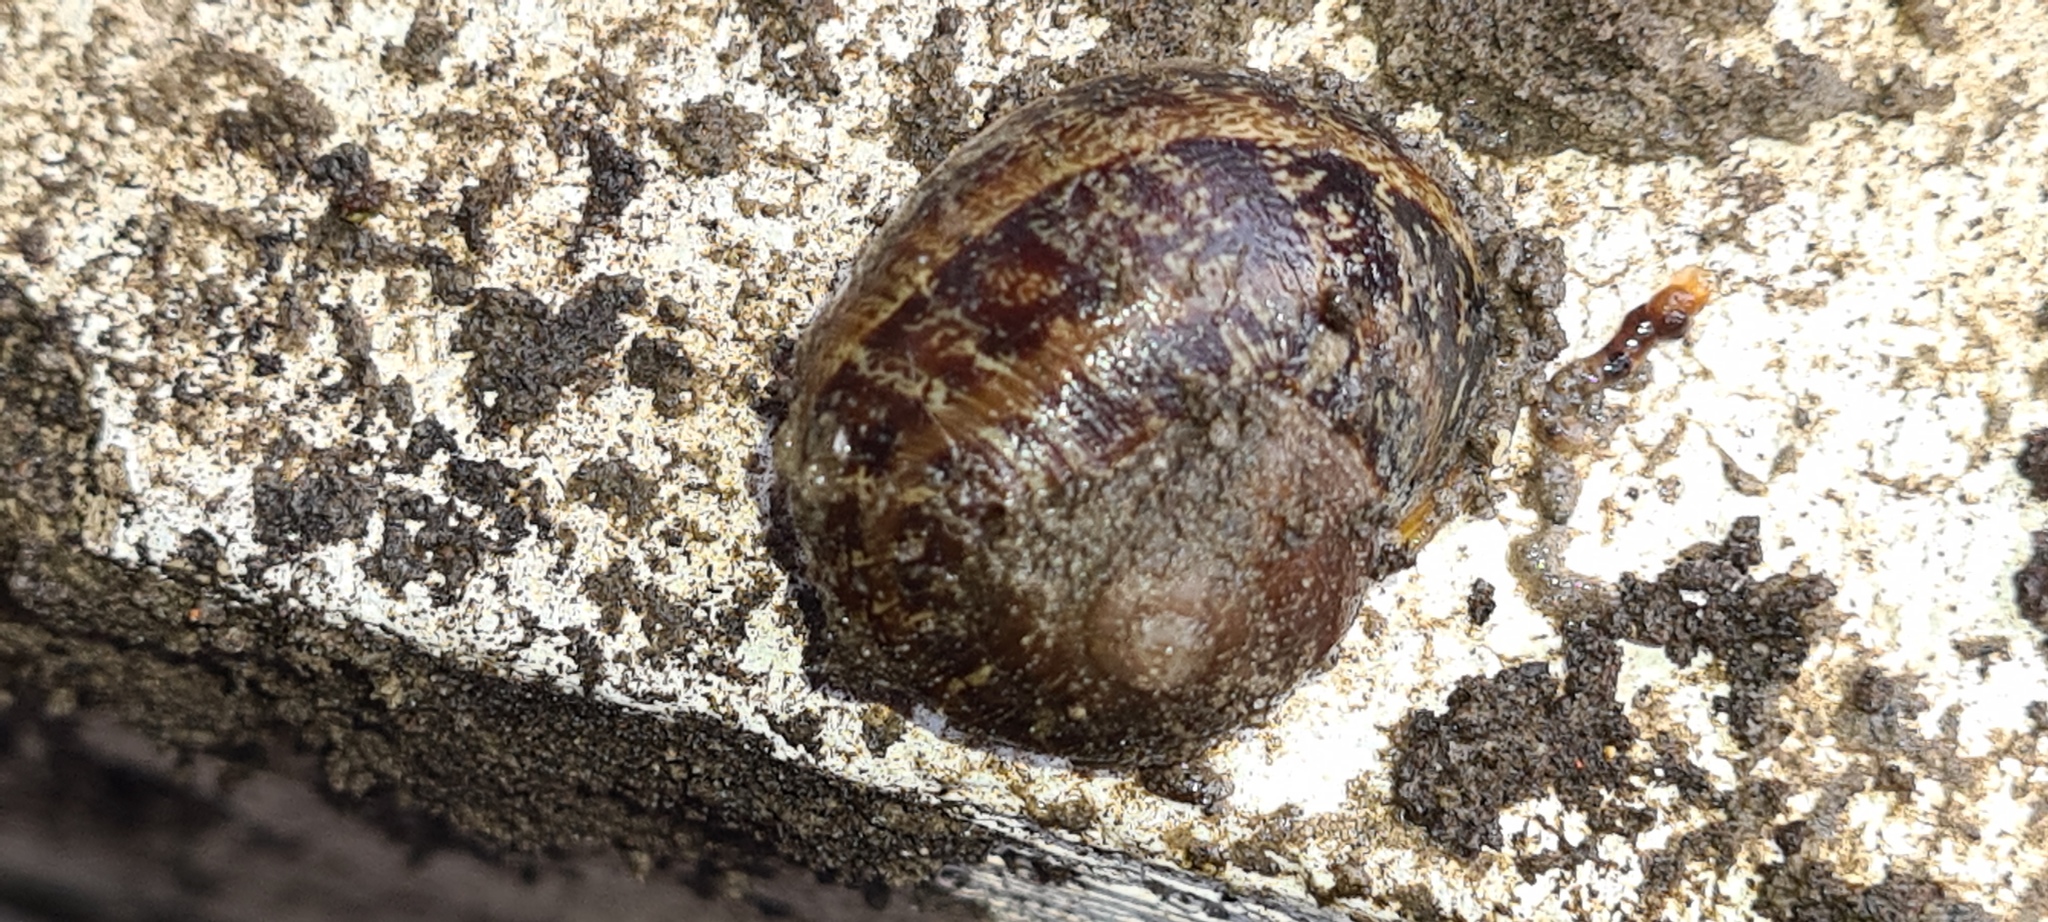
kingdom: Animalia
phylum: Mollusca
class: Gastropoda
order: Stylommatophora
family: Helicidae
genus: Cornu
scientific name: Cornu aspersum
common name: Brown garden snail
